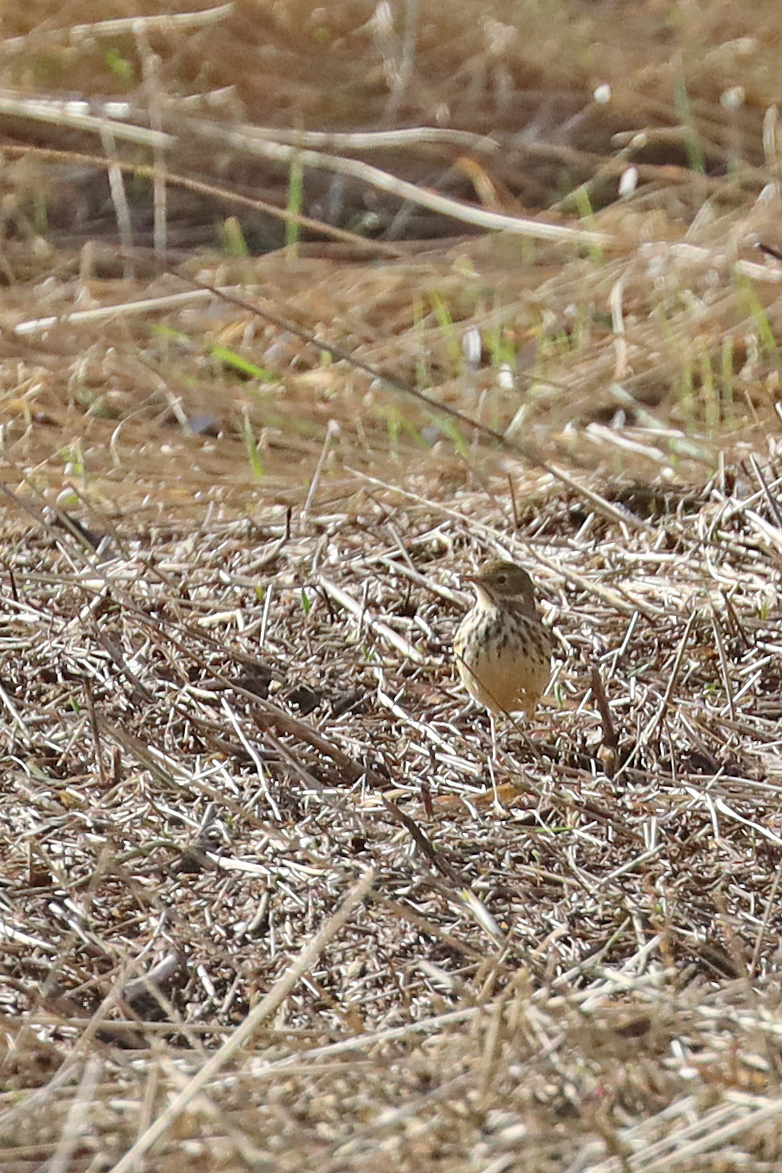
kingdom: Animalia
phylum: Chordata
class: Aves
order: Passeriformes
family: Motacillidae
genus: Anthus
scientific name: Anthus pratensis
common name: Meadow pipit
